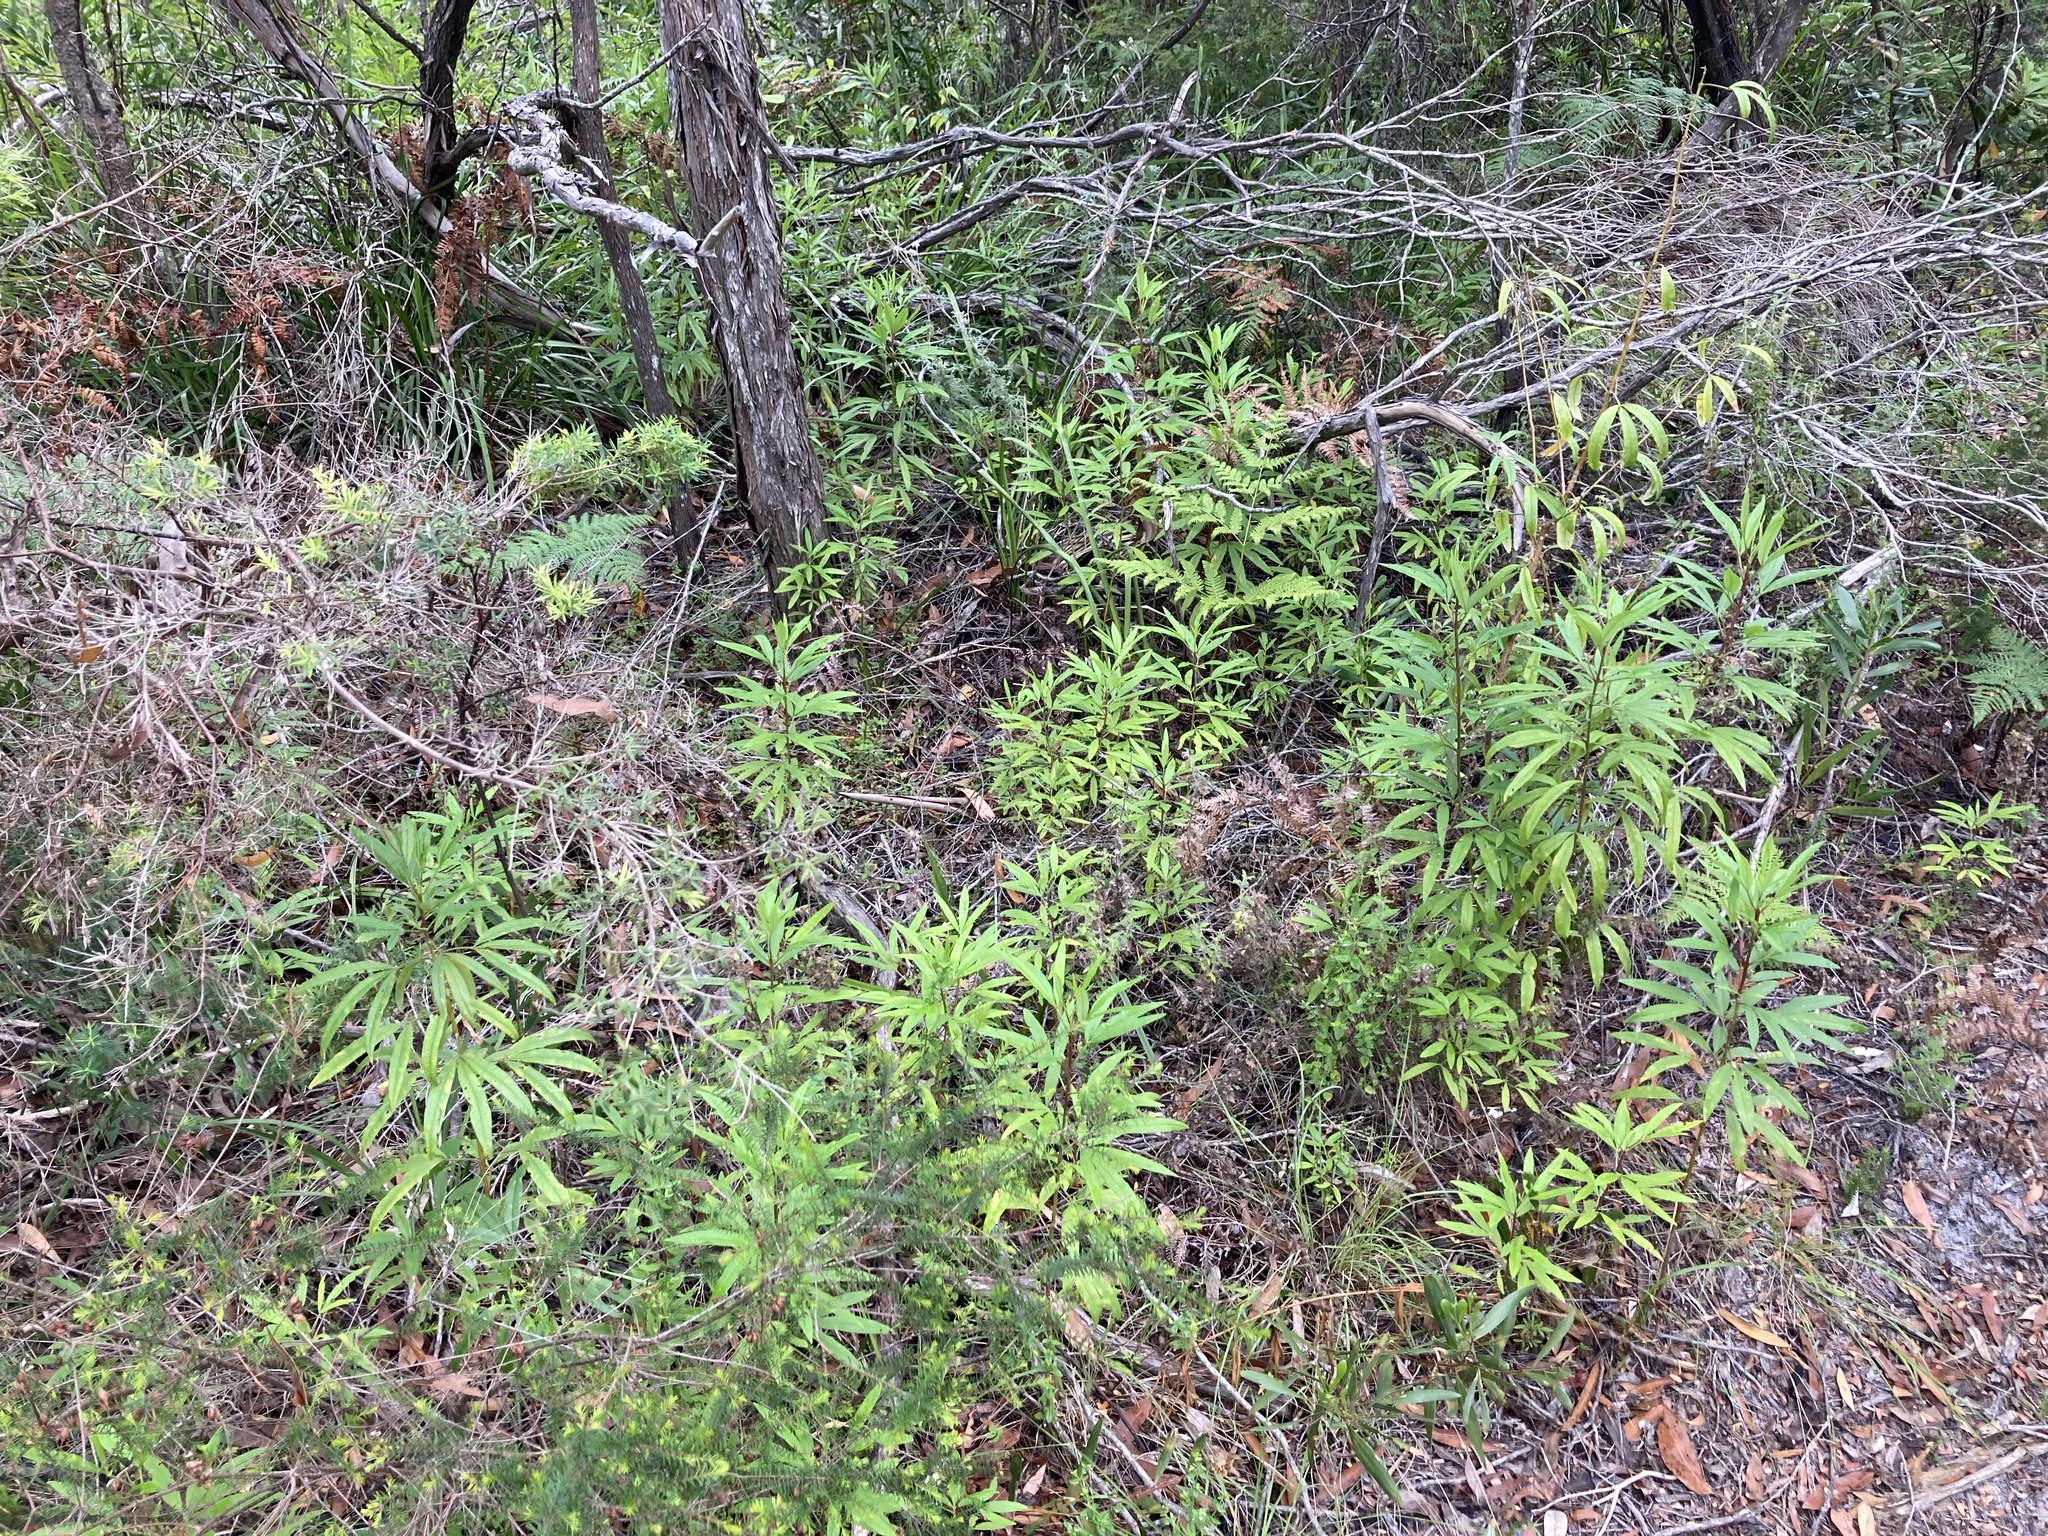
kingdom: Plantae
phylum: Tracheophyta
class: Magnoliopsida
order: Sapindales
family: Rutaceae
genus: Zieria
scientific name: Zieria arborescens
